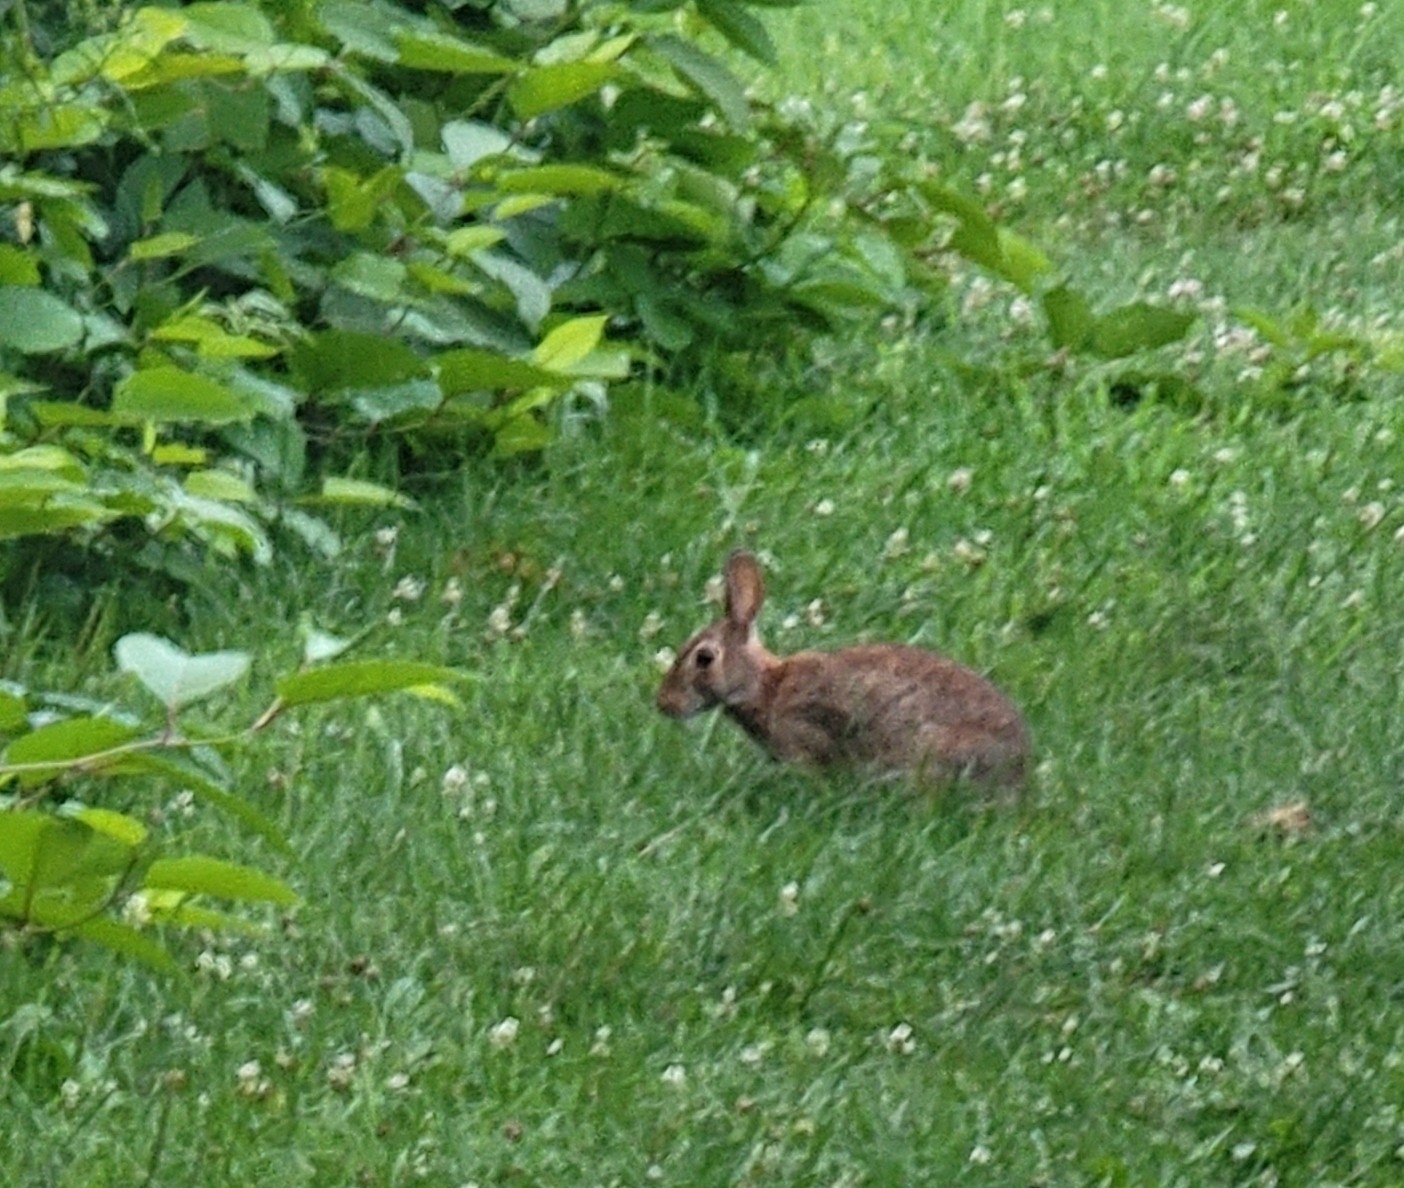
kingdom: Animalia
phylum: Chordata
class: Mammalia
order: Lagomorpha
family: Leporidae
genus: Sylvilagus
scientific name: Sylvilagus floridanus
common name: Eastern cottontail
